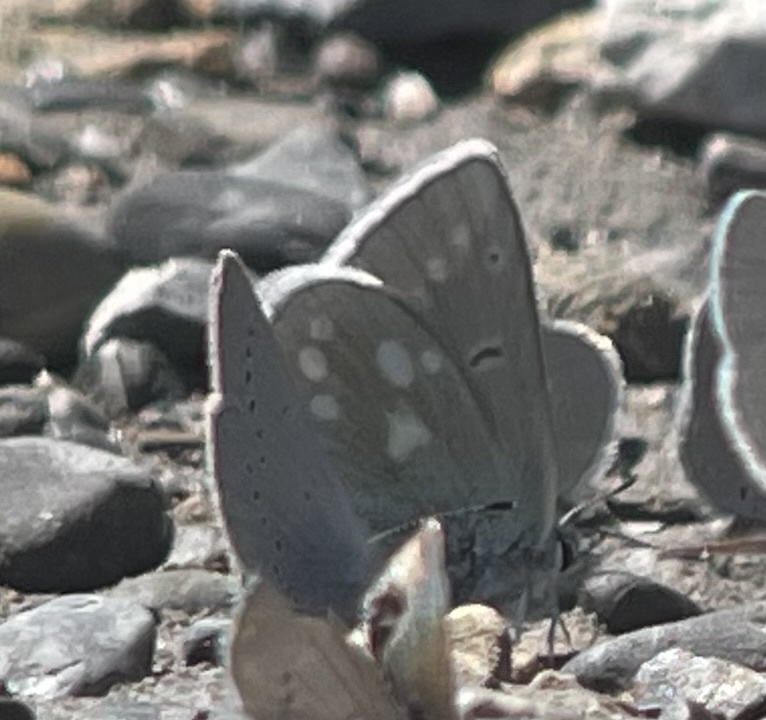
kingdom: Animalia
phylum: Arthropoda
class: Insecta
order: Lepidoptera
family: Lycaenidae
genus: Albulina
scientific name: Albulina orbitulus
